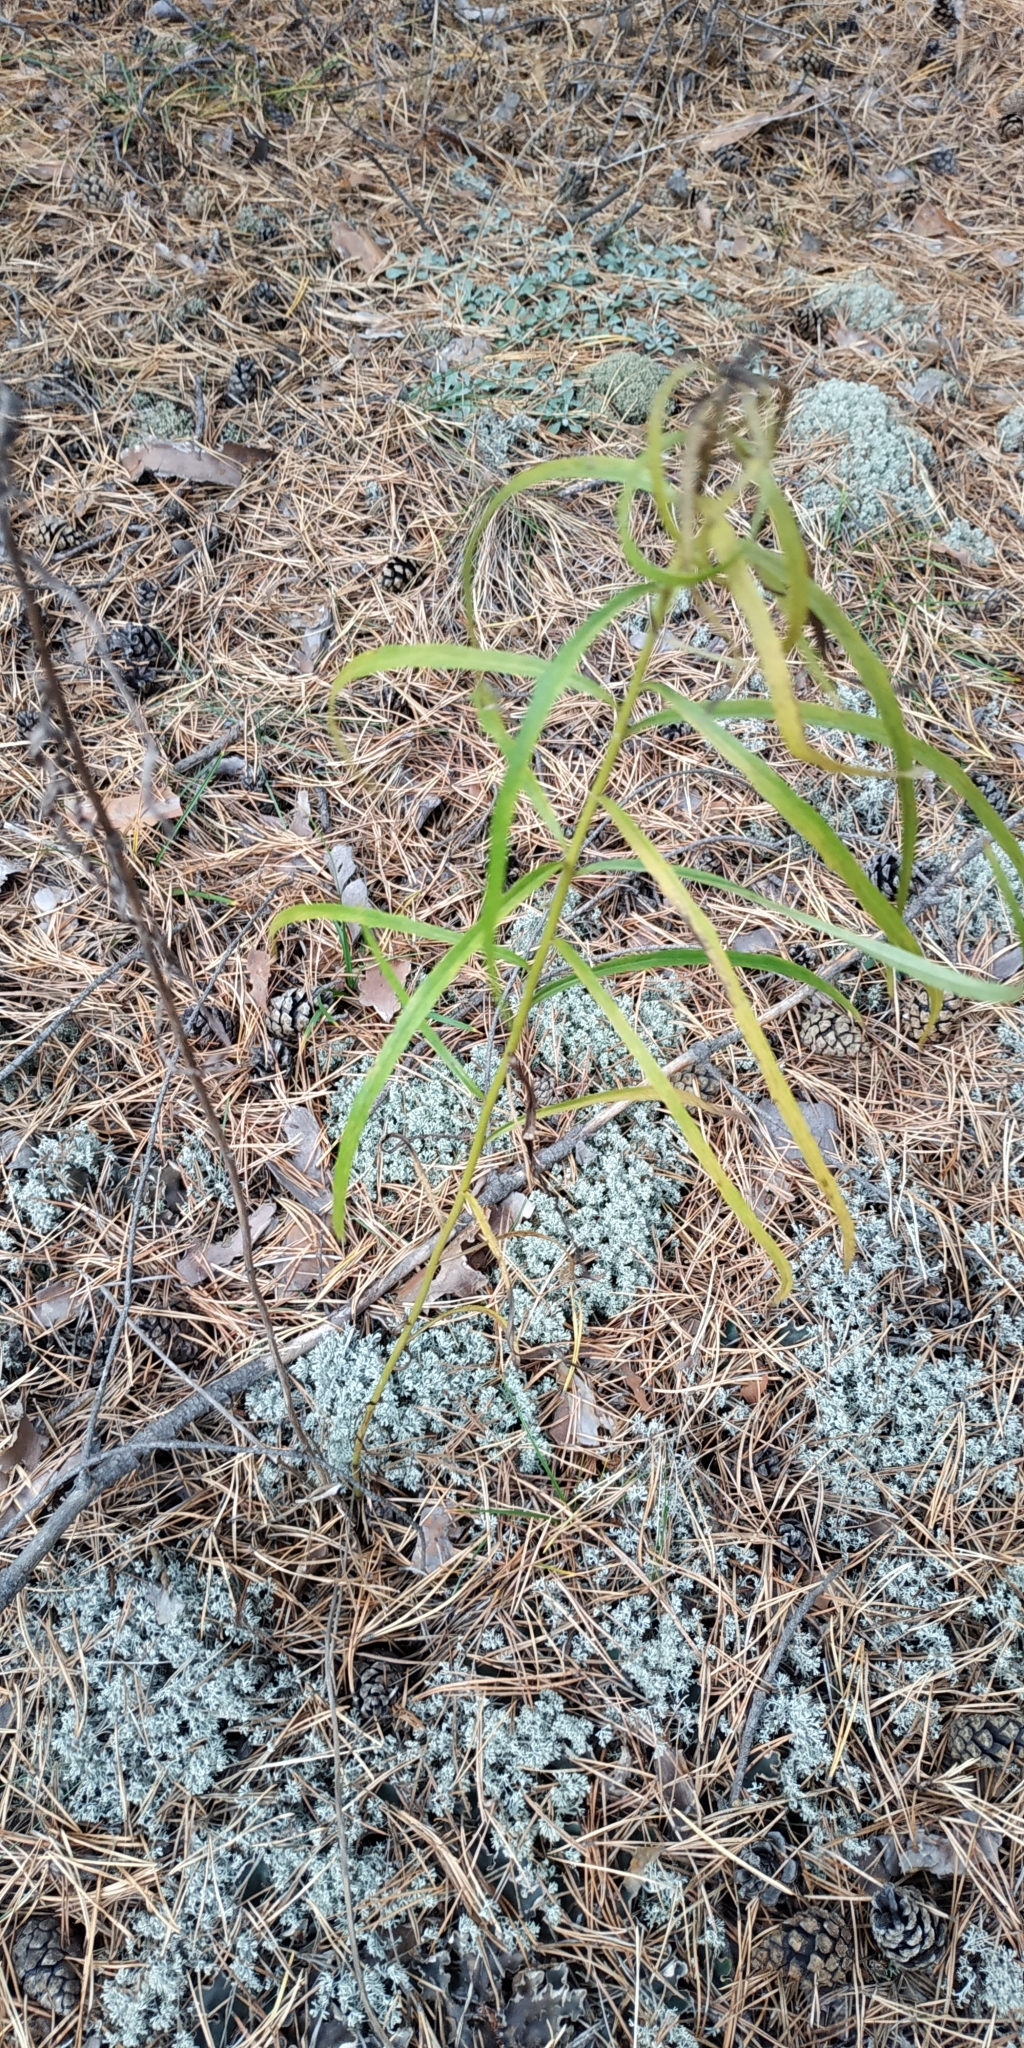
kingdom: Plantae
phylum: Tracheophyta
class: Magnoliopsida
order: Asterales
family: Asteraceae
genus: Hieracium
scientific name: Hieracium umbellatum
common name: Northern hawkweed
